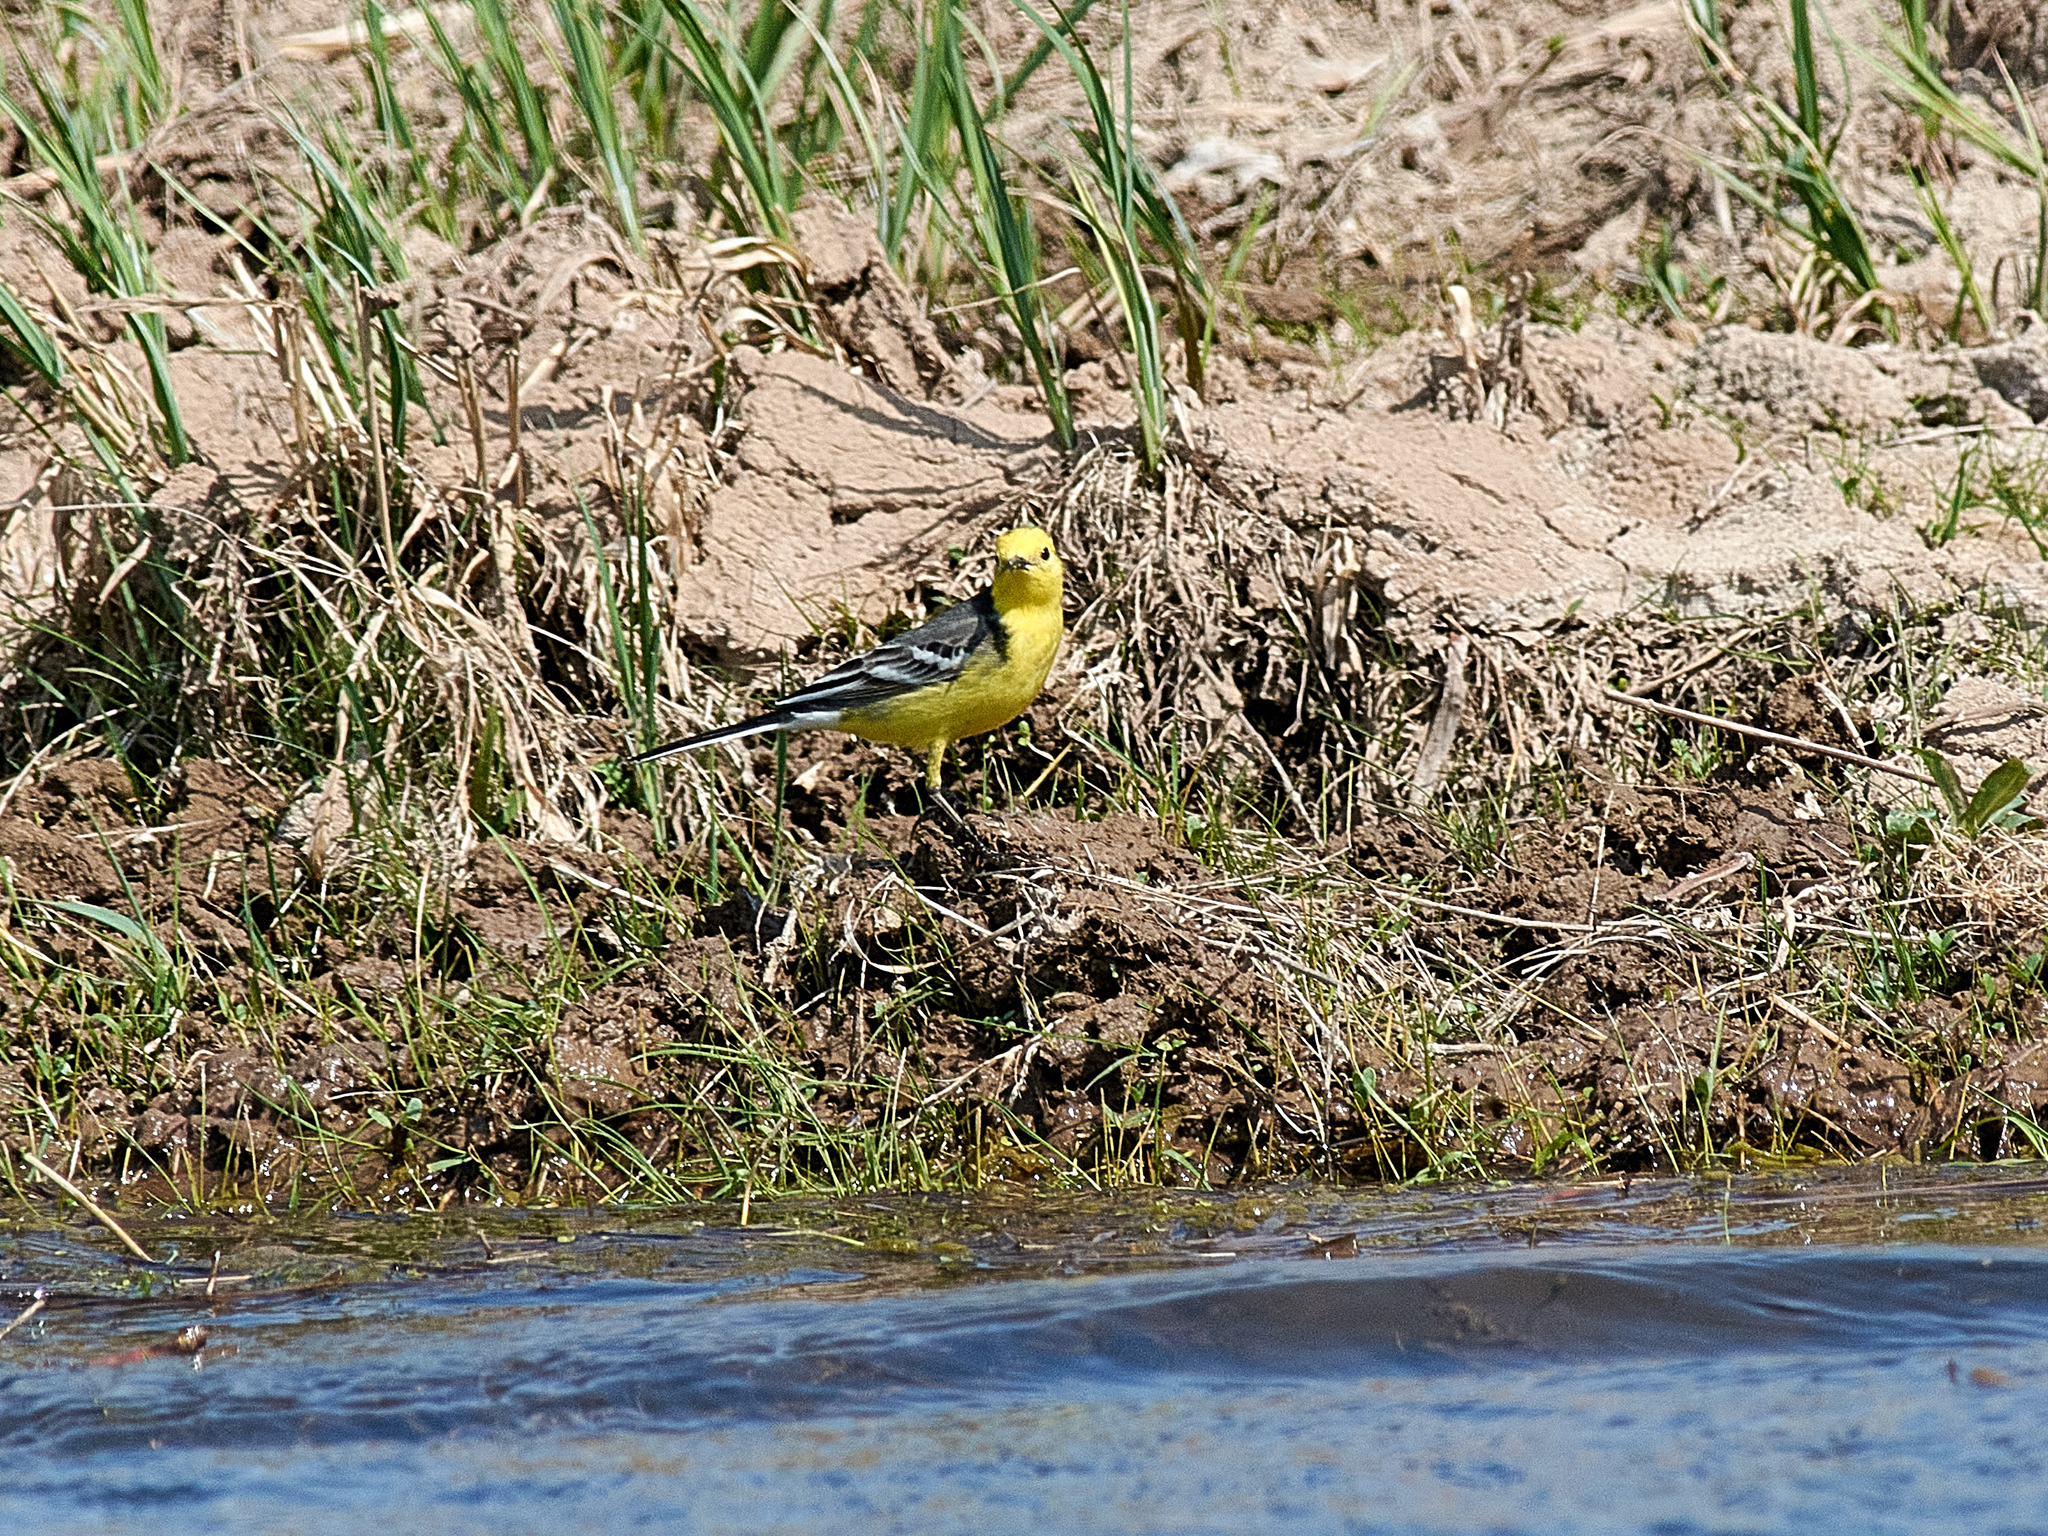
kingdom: Animalia
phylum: Chordata
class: Aves
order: Passeriformes
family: Motacillidae
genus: Motacilla
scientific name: Motacilla citreola
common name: Citrine wagtail
